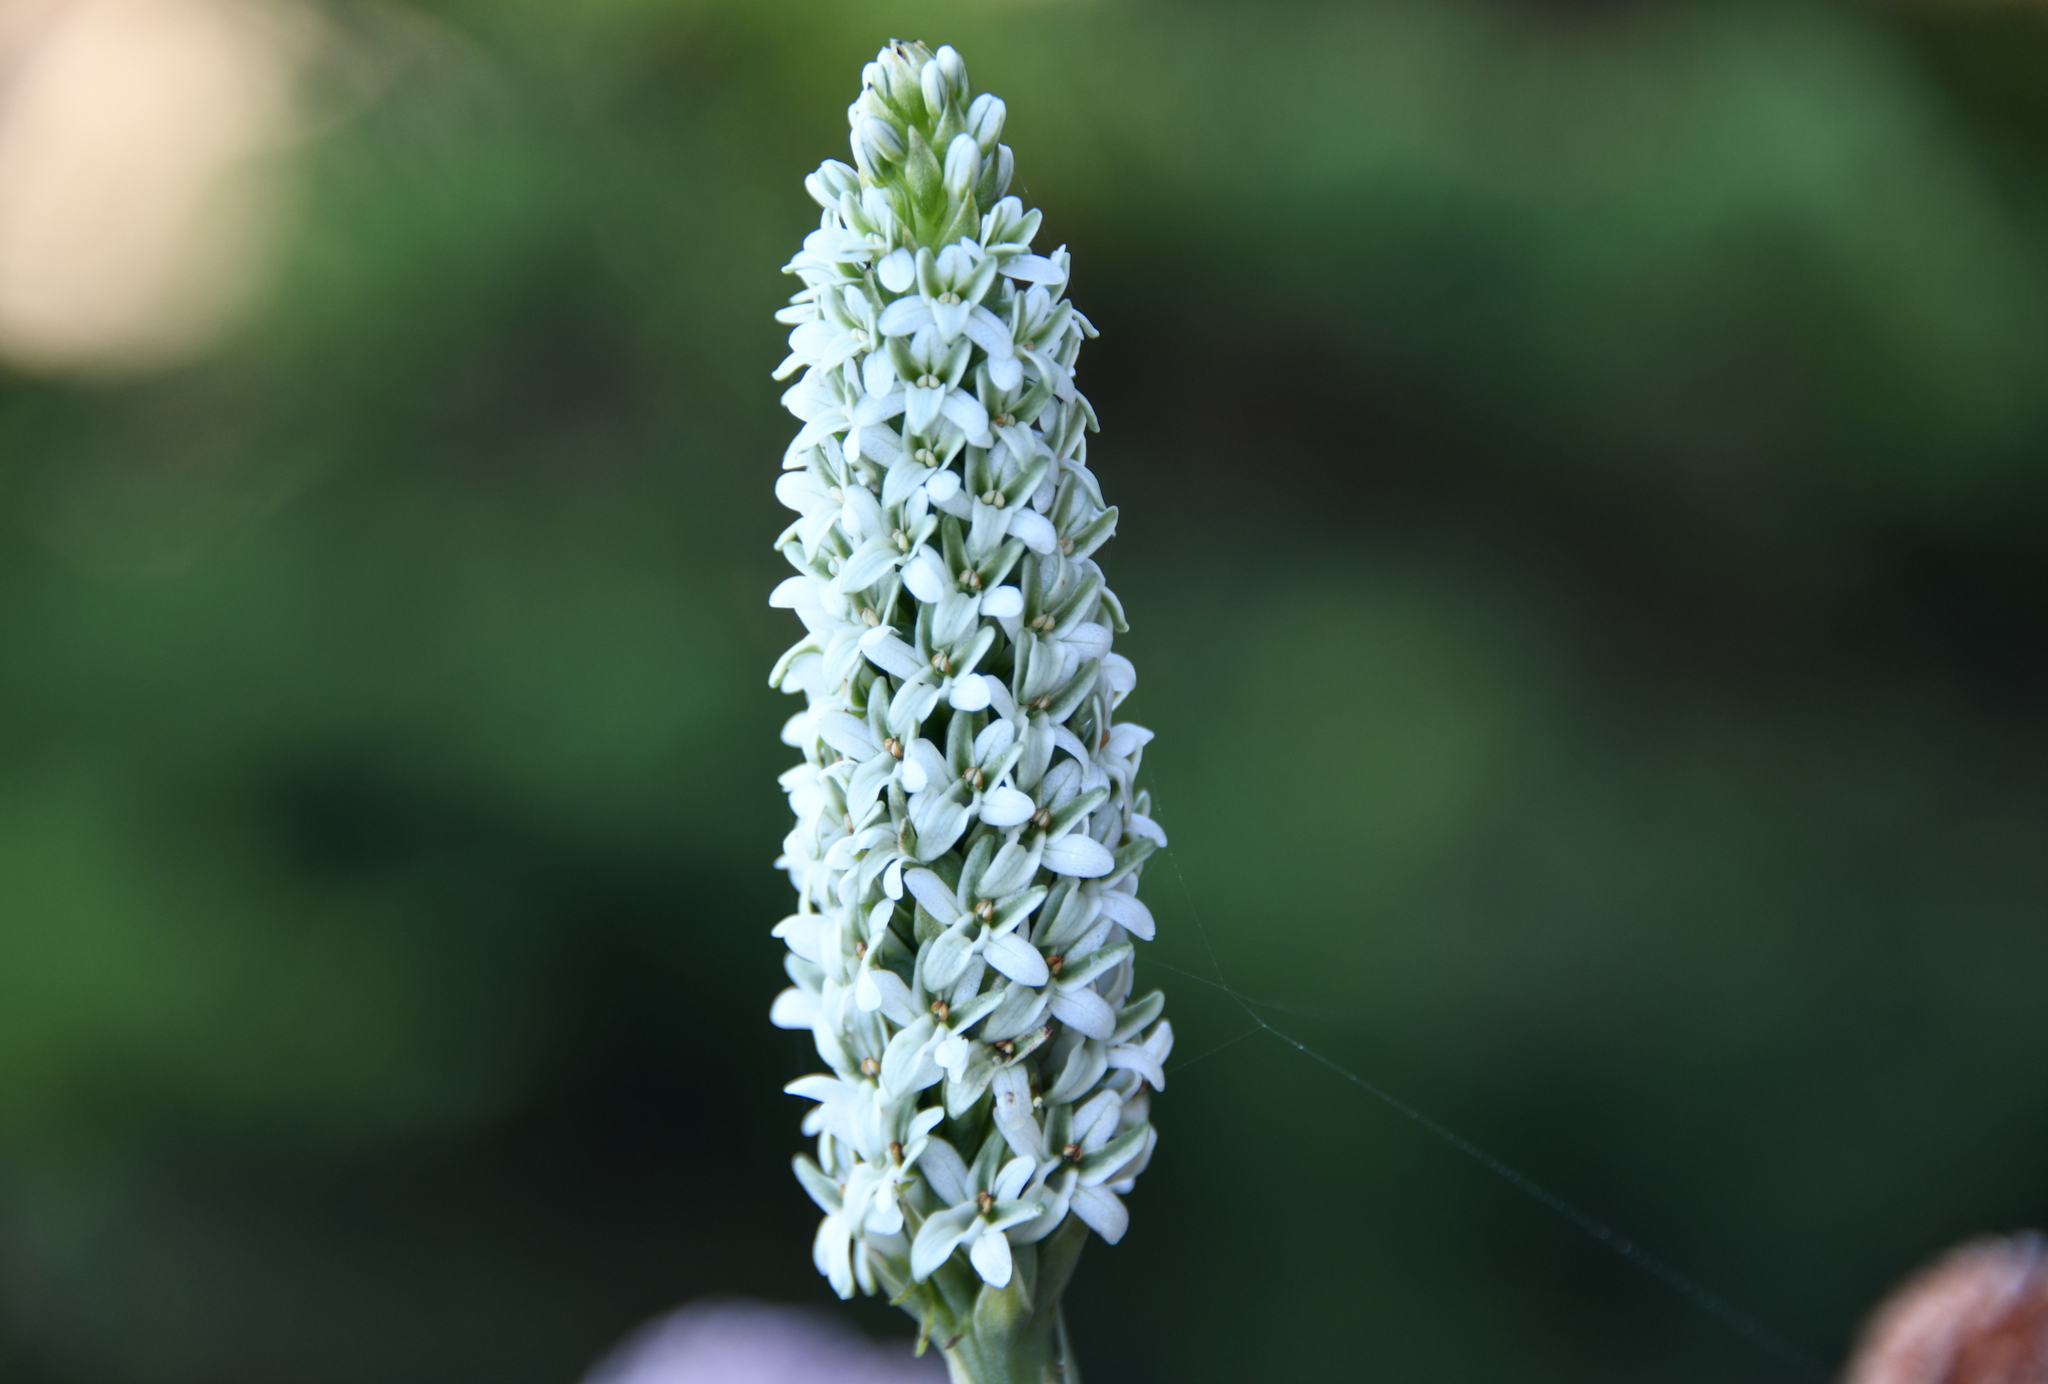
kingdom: Plantae
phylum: Tracheophyta
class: Liliopsida
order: Asparagales
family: Orchidaceae
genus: Platanthera
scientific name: Platanthera elegans
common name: Coast piperia
